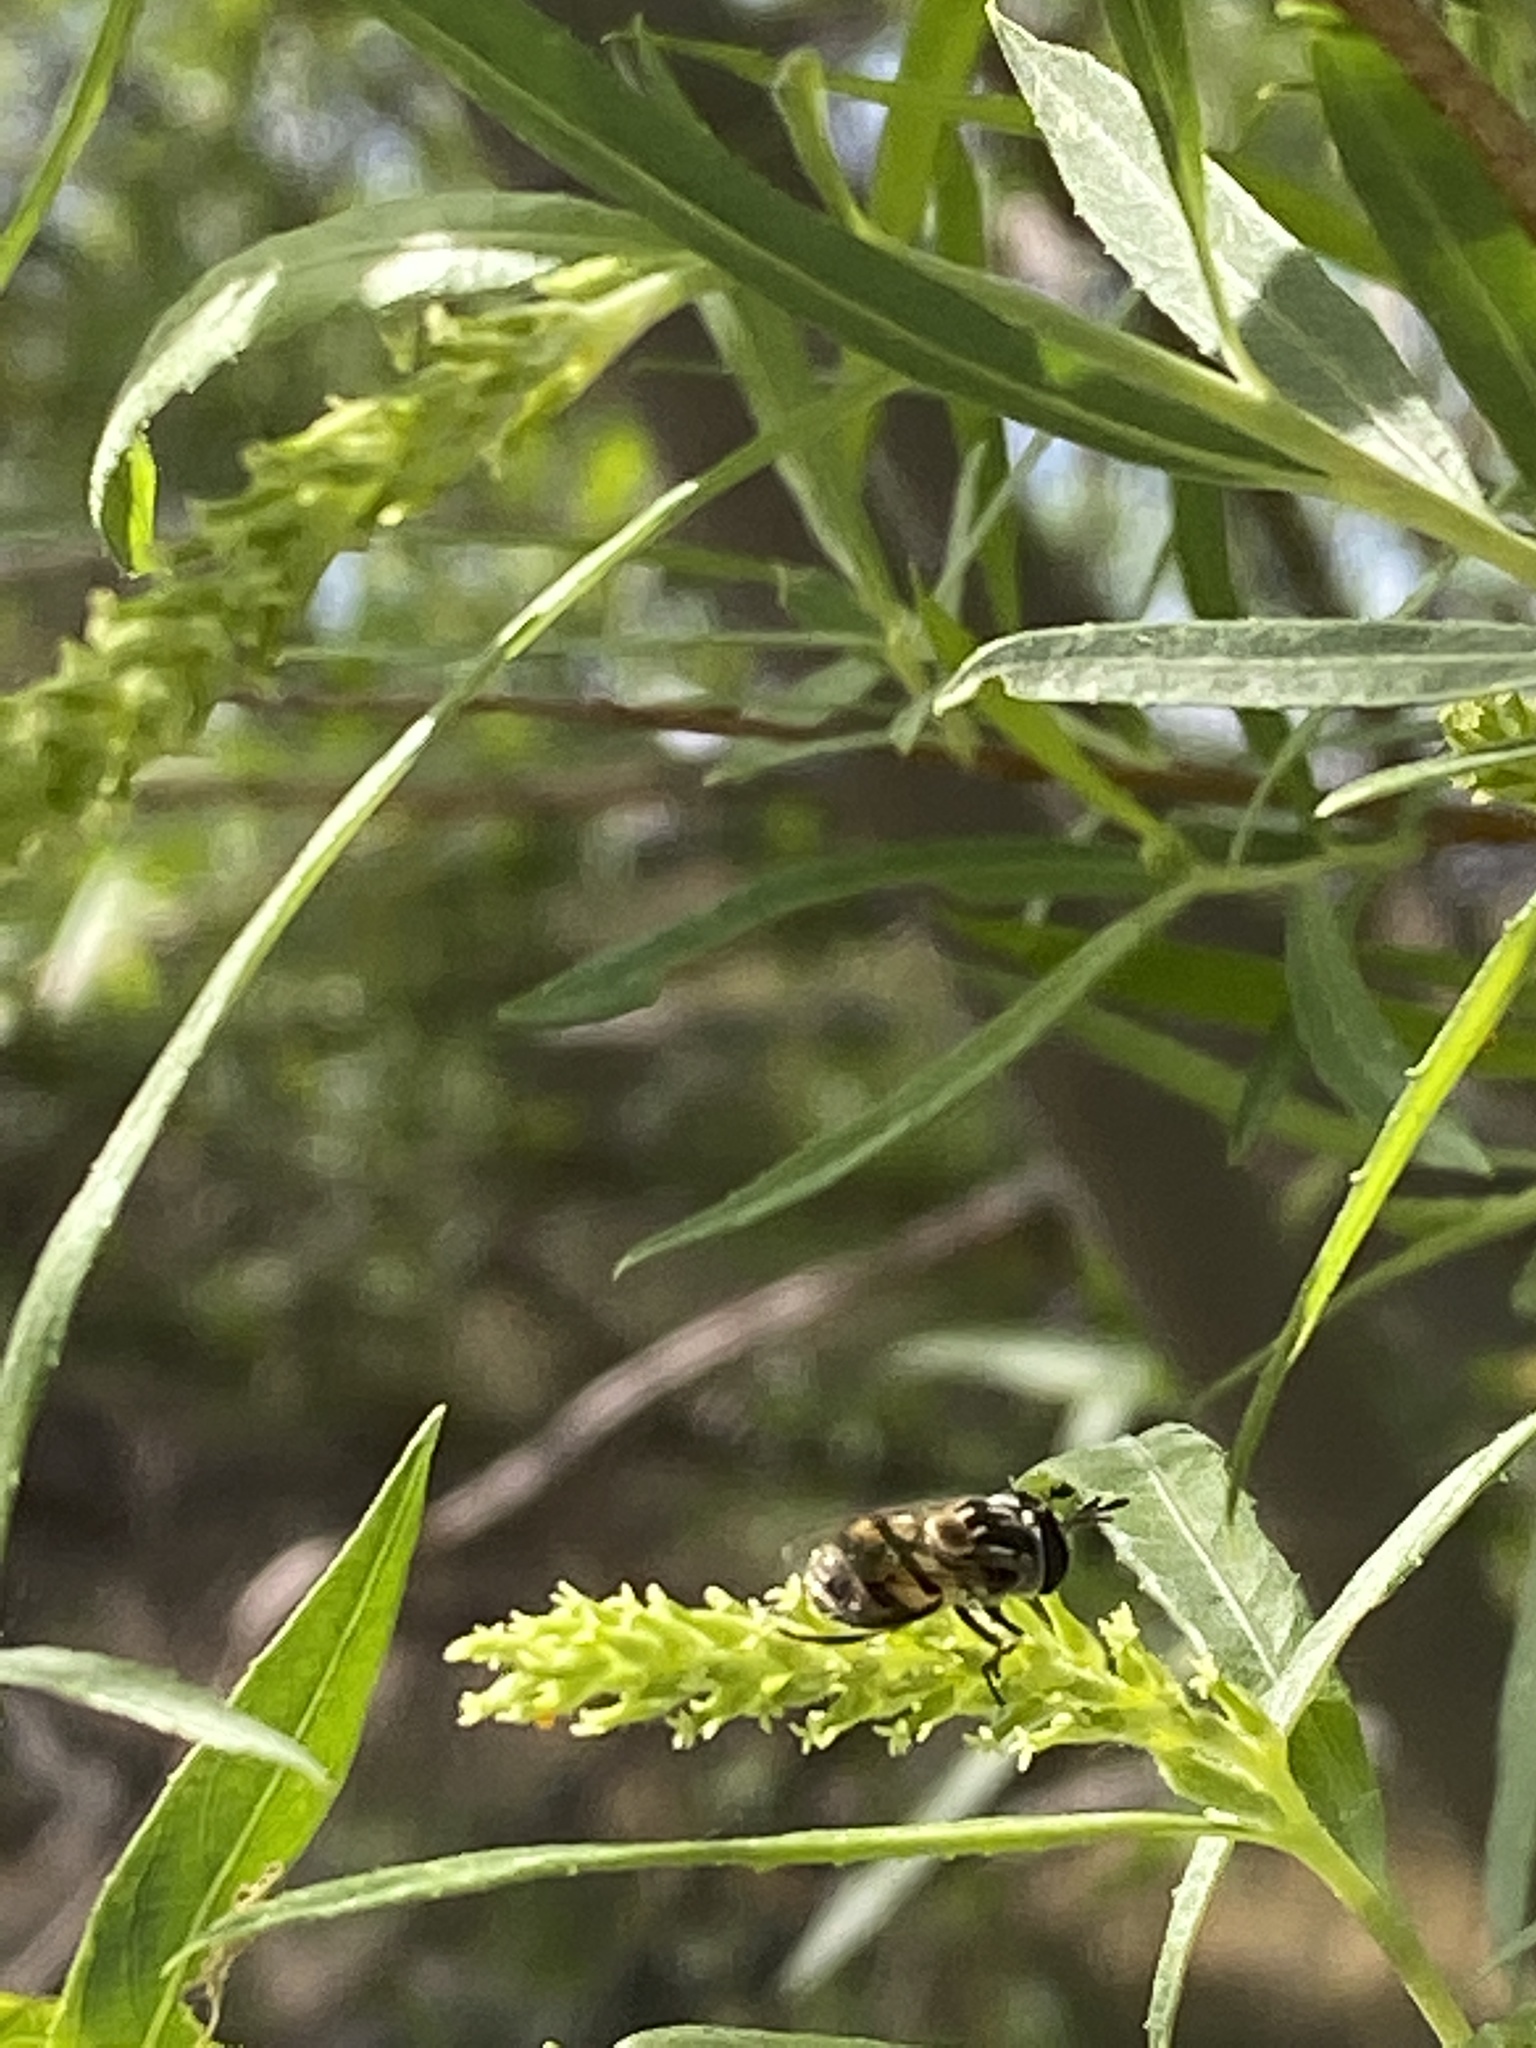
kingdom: Animalia
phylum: Arthropoda
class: Insecta
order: Diptera
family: Syrphidae
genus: Copestylum
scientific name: Copestylum marginatum
